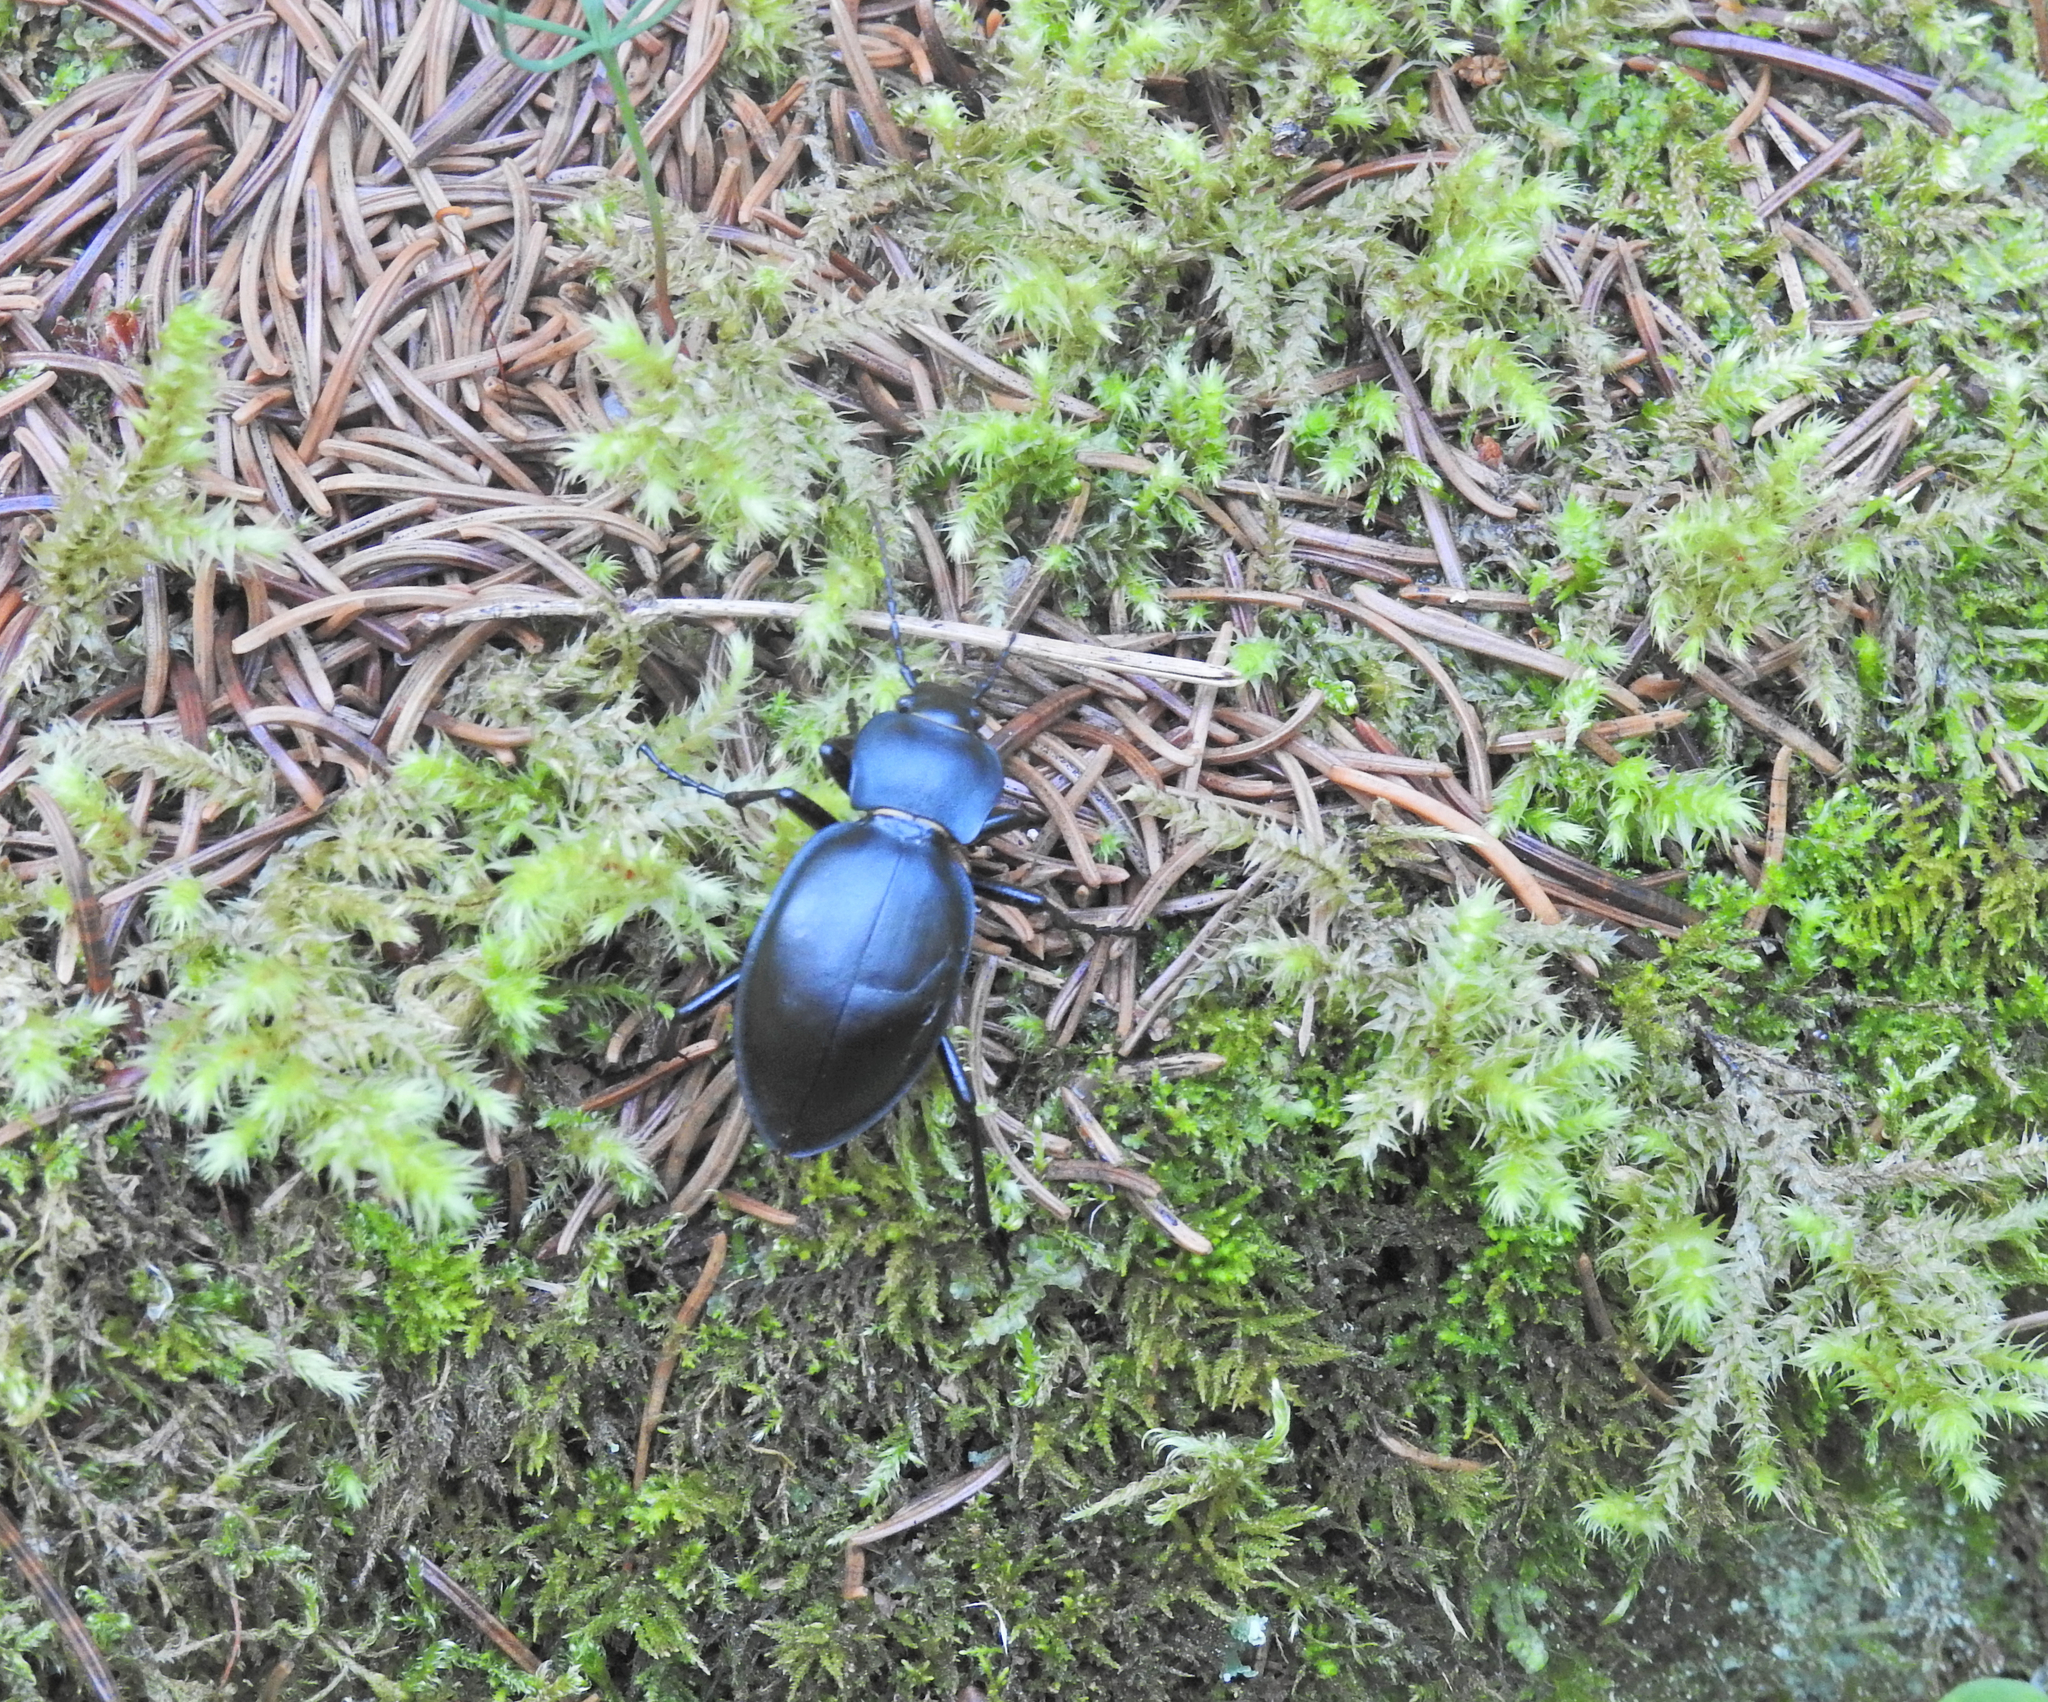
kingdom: Animalia
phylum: Arthropoda
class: Insecta
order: Coleoptera
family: Carabidae
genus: Carabus
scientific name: Carabus glabratus
